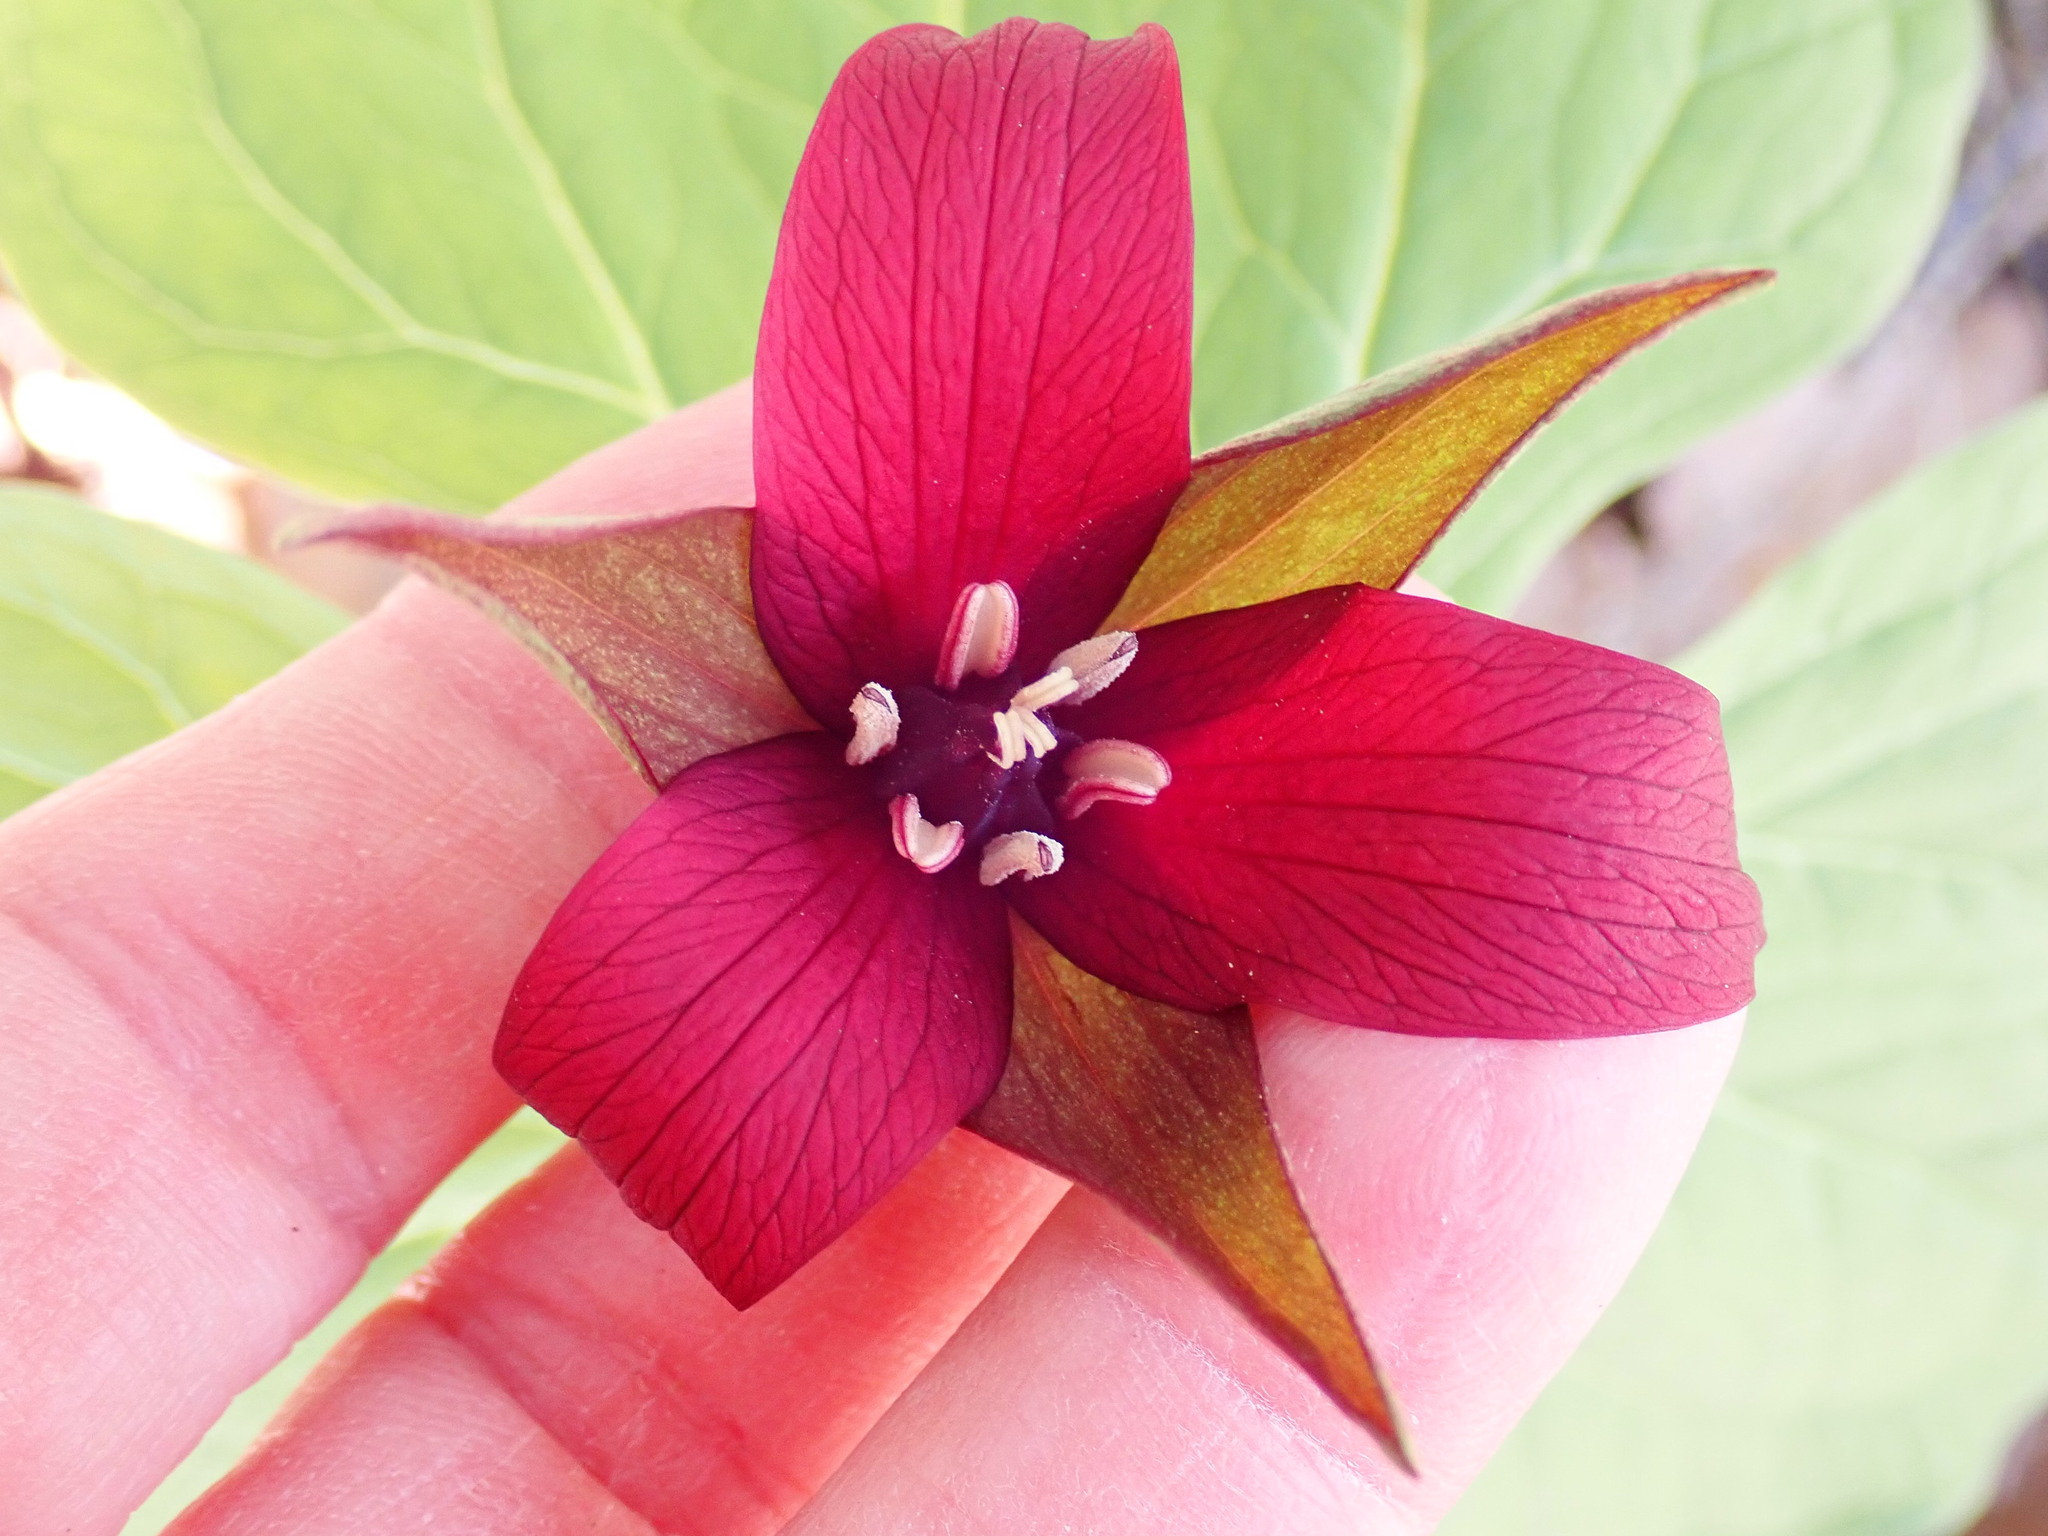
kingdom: Plantae
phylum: Tracheophyta
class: Liliopsida
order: Liliales
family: Melanthiaceae
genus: Trillium
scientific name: Trillium erectum
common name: Purple trillium
